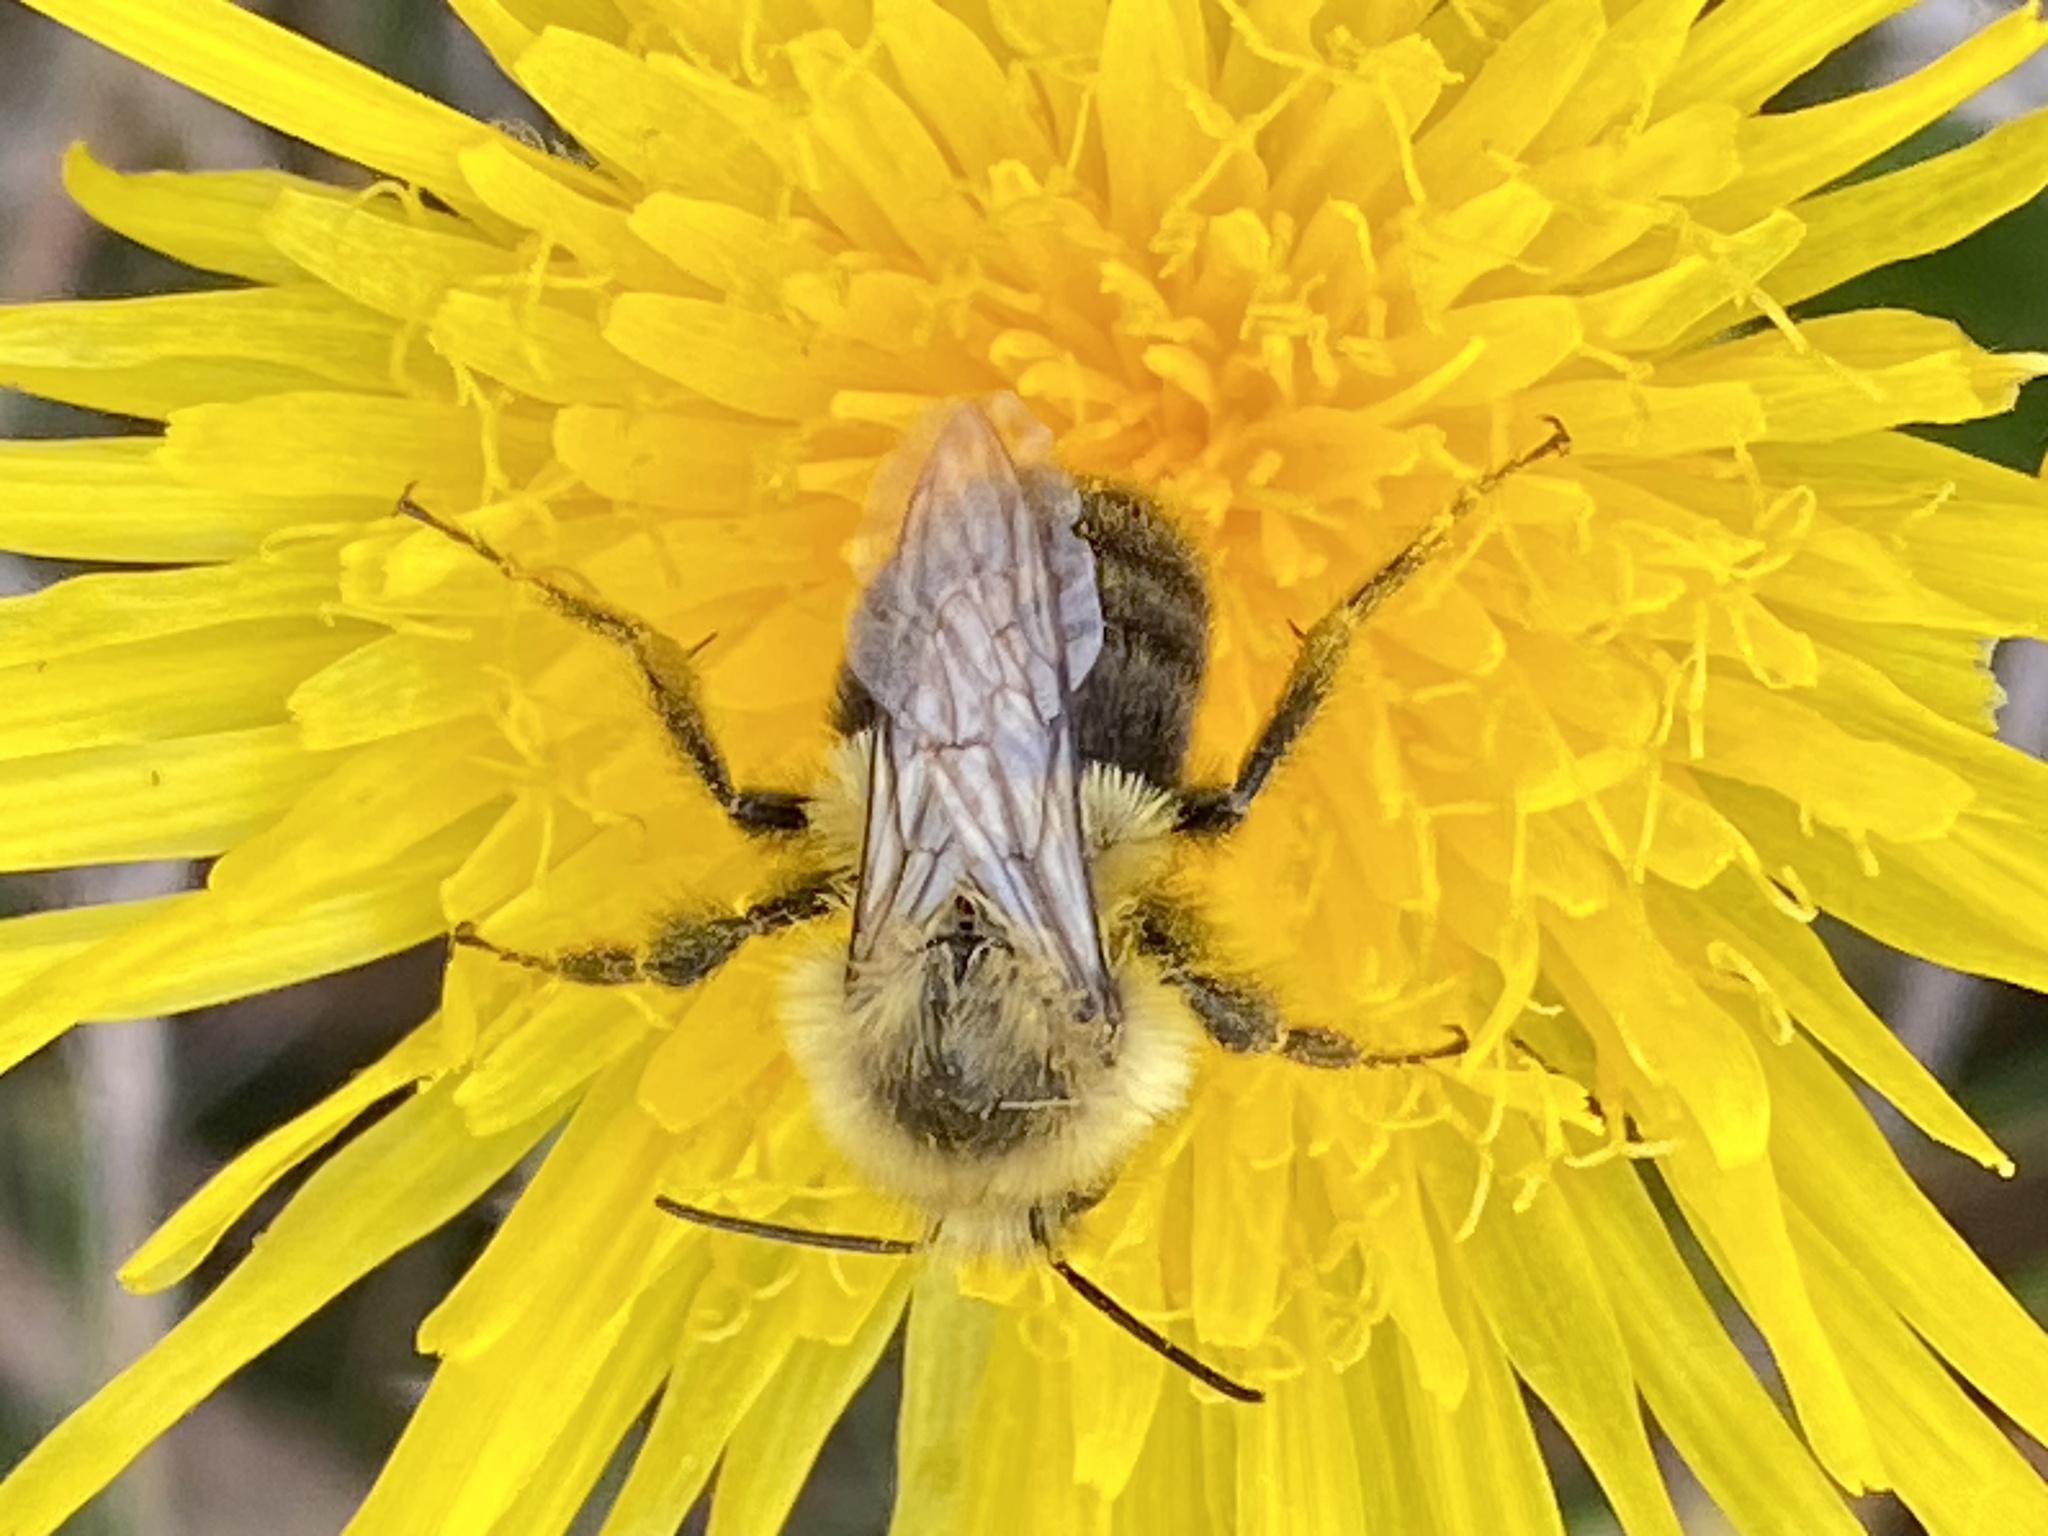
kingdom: Animalia
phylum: Arthropoda
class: Insecta
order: Hymenoptera
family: Apidae
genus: Bombus
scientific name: Bombus impatiens
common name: Common eastern bumble bee
